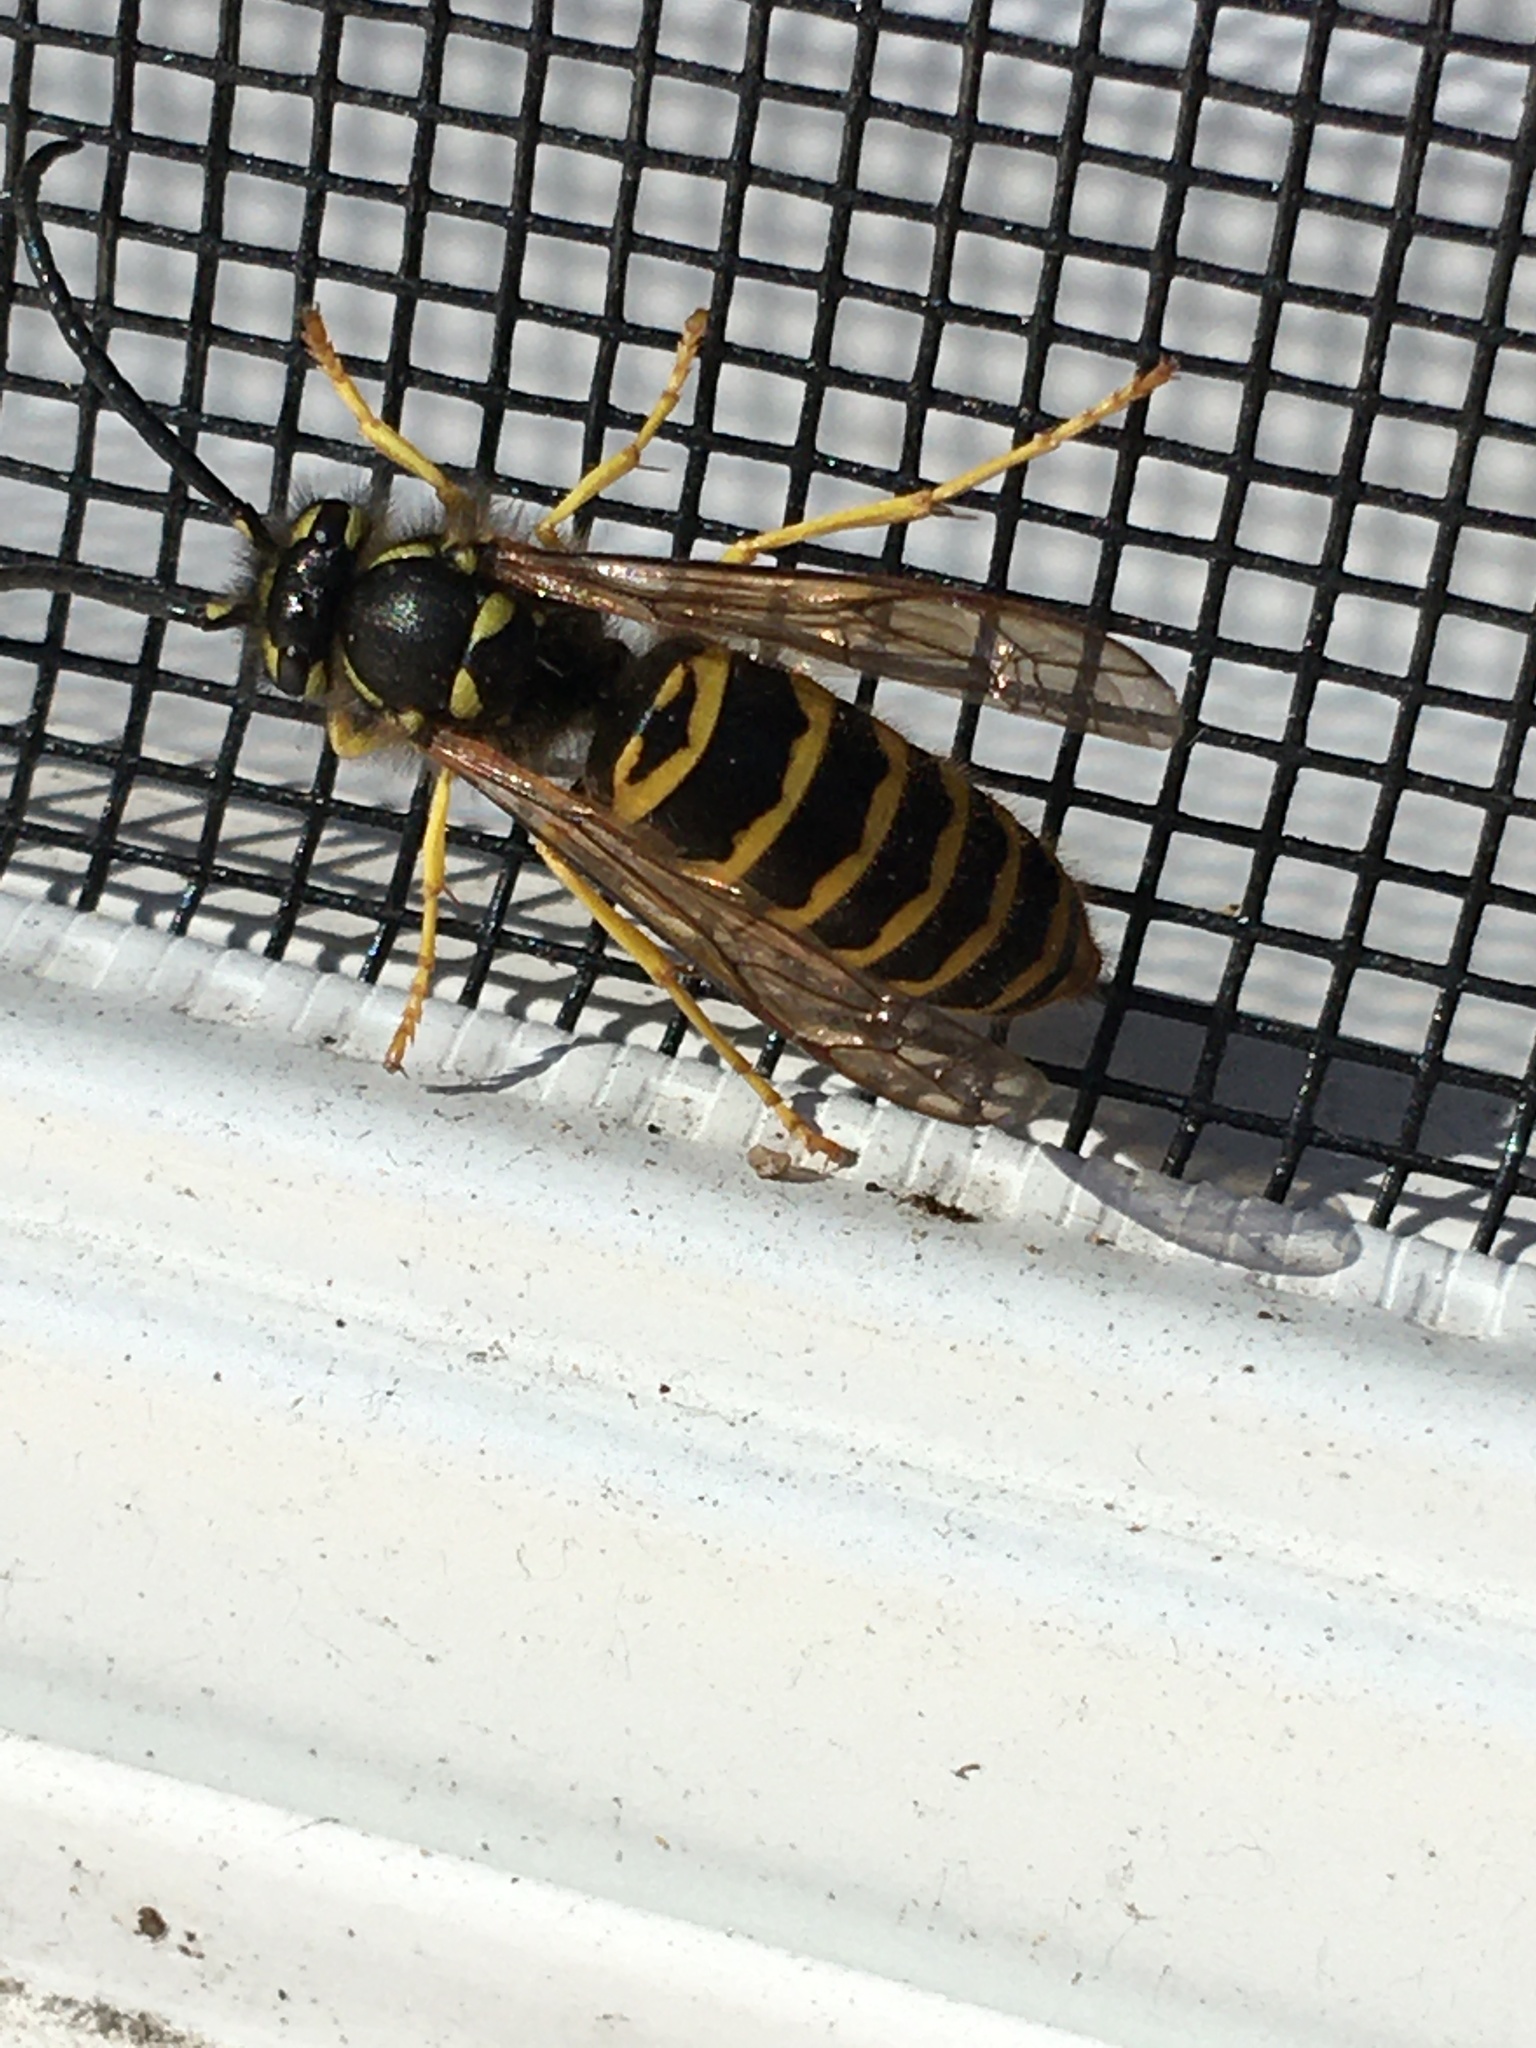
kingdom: Animalia
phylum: Arthropoda
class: Insecta
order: Hymenoptera
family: Vespidae
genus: Vespula
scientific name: Vespula maculifrons
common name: Eastern yellowjacket
